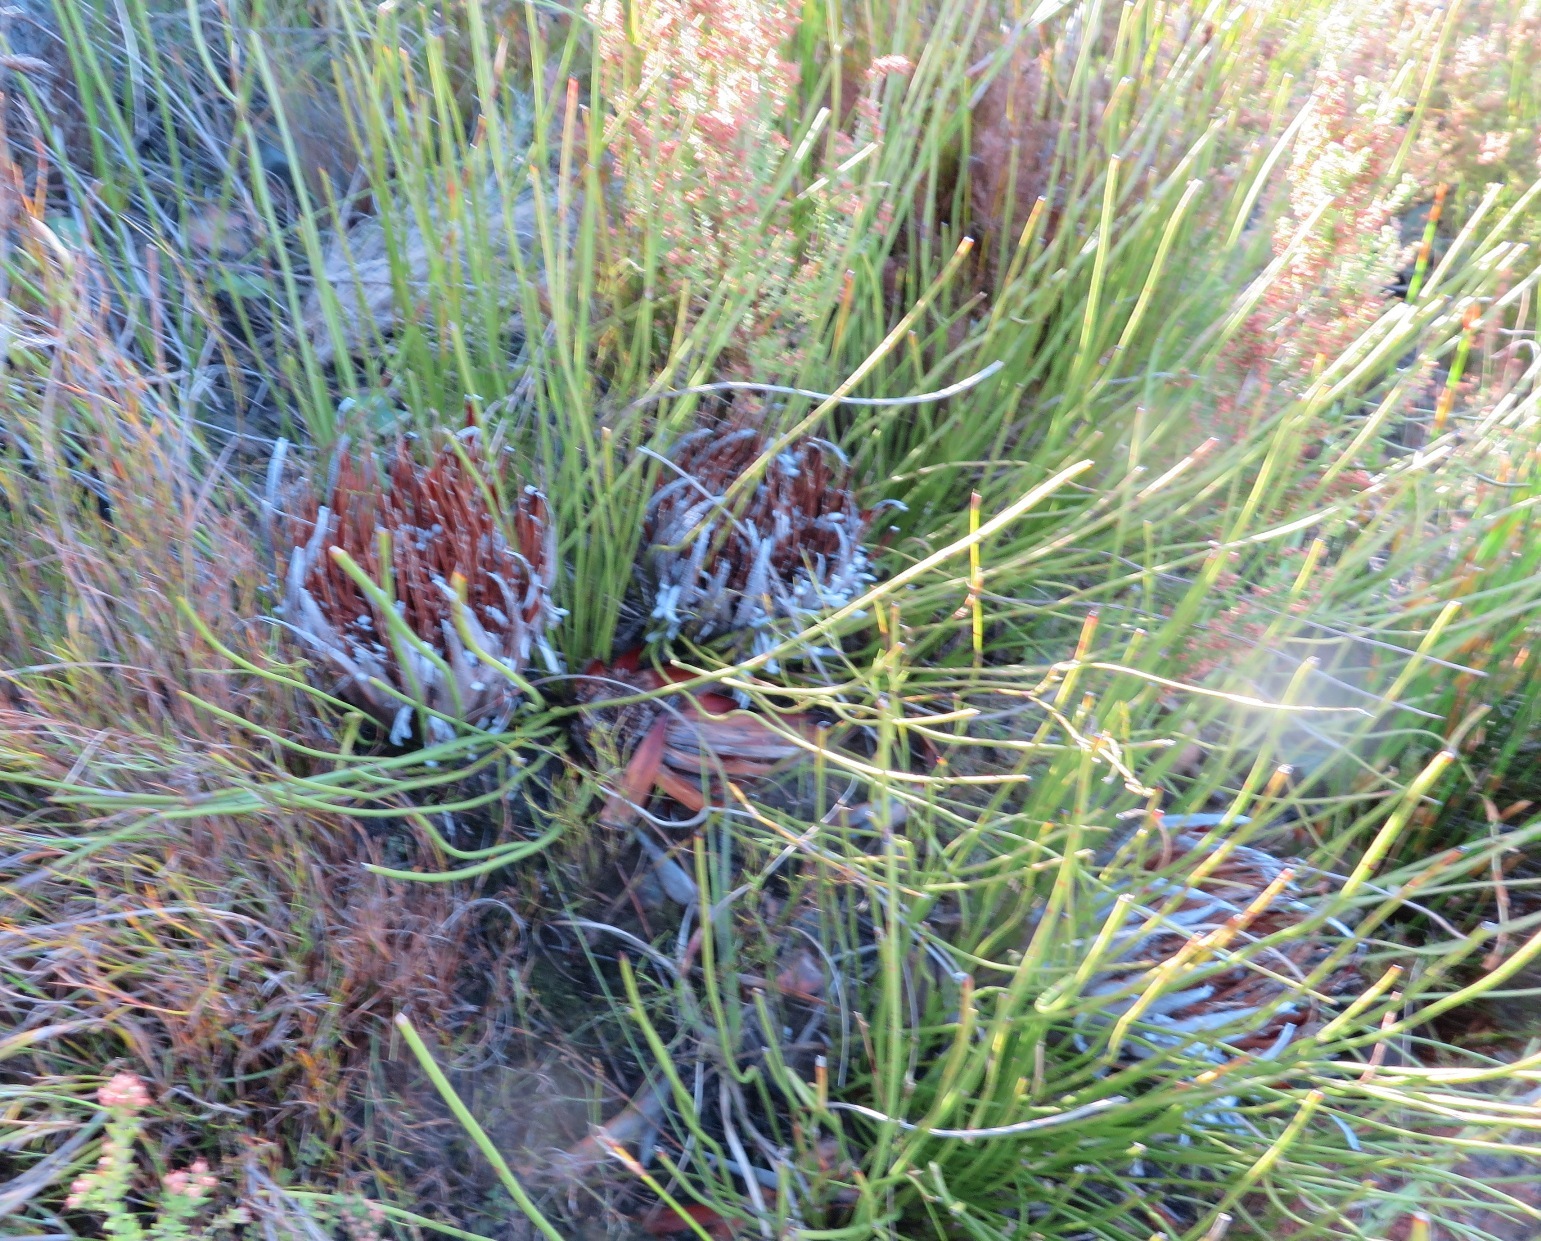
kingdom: Plantae
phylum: Tracheophyta
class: Magnoliopsida
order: Proteales
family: Proteaceae
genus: Protea
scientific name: Protea lorea
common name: Thong-leaf sugarbush
